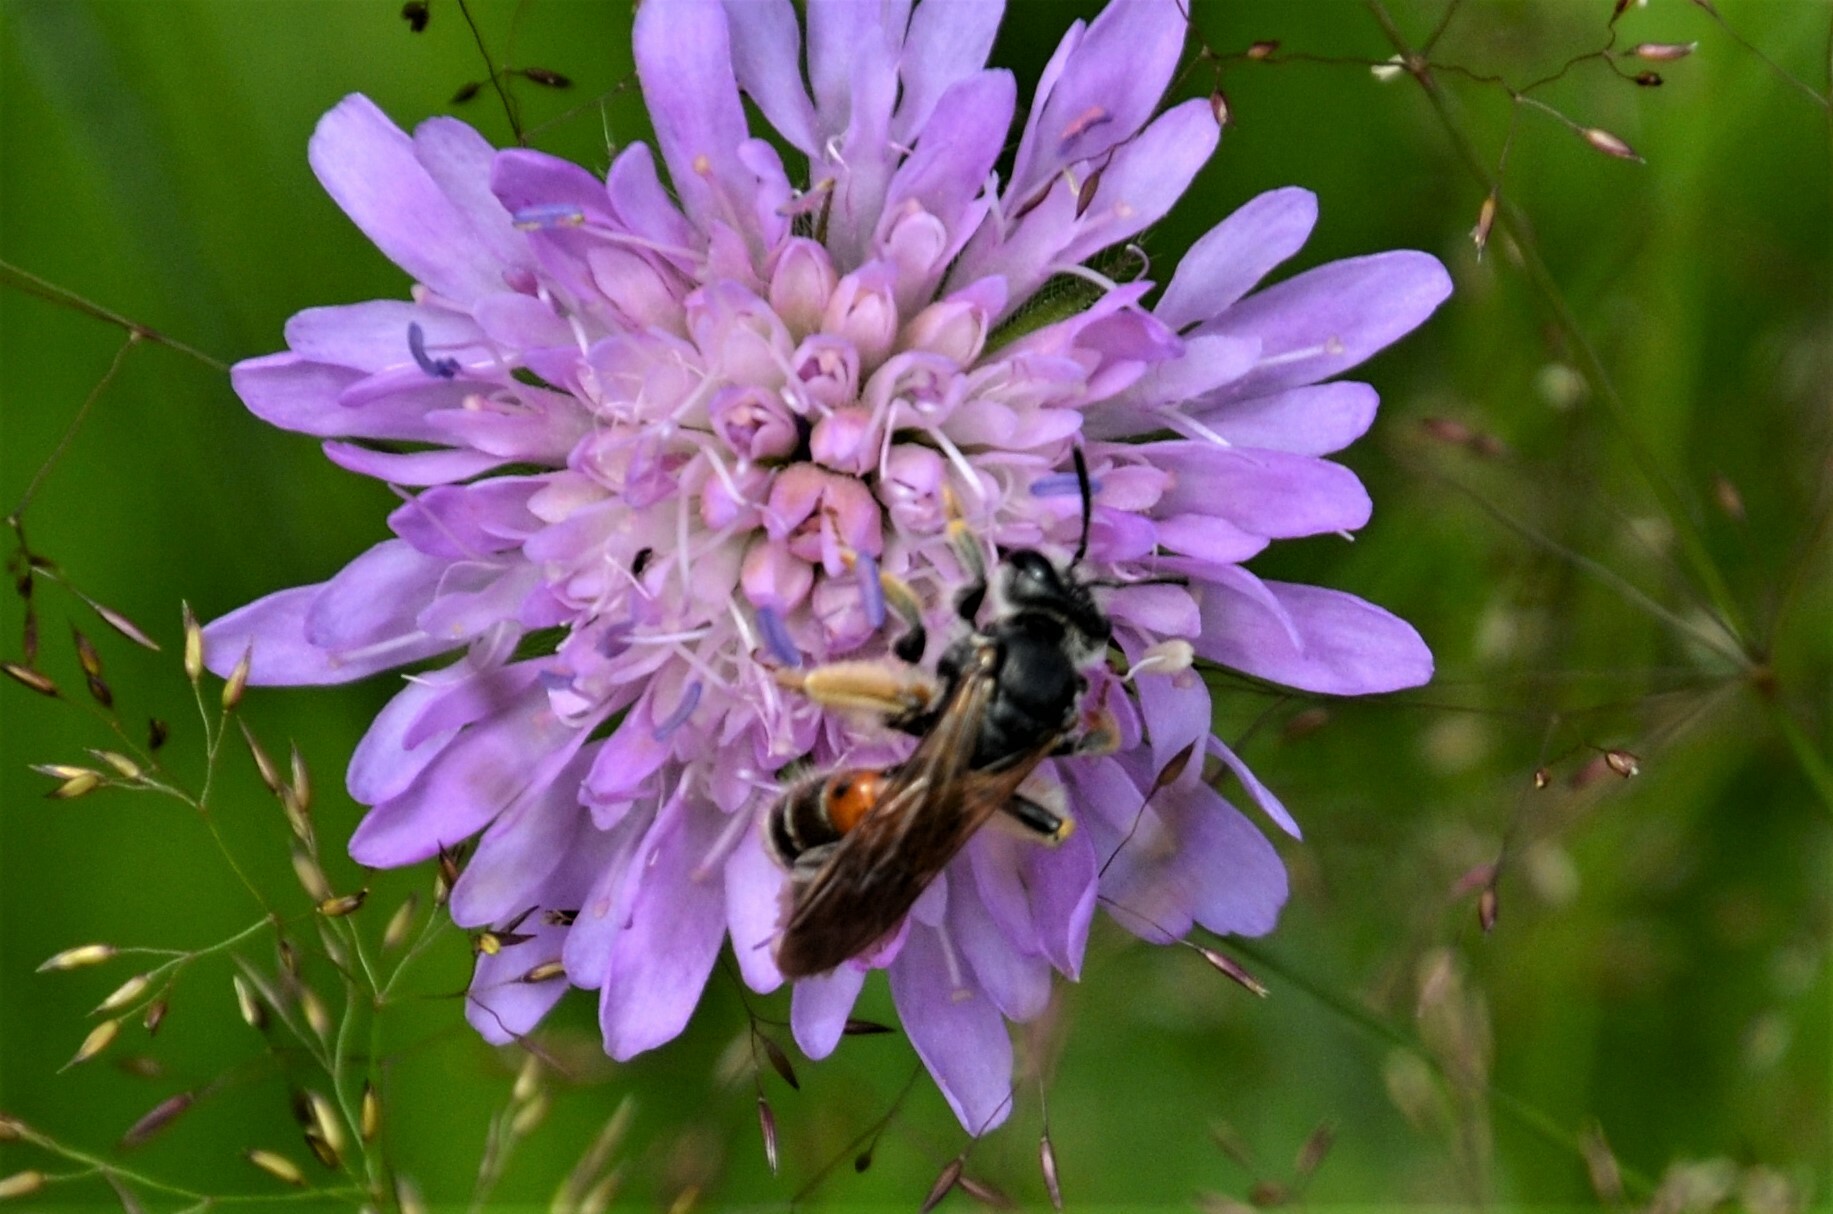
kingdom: Animalia
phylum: Arthropoda
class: Insecta
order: Hymenoptera
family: Andrenidae
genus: Andrena
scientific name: Andrena hattorfiana
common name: Large scabious mining bee
